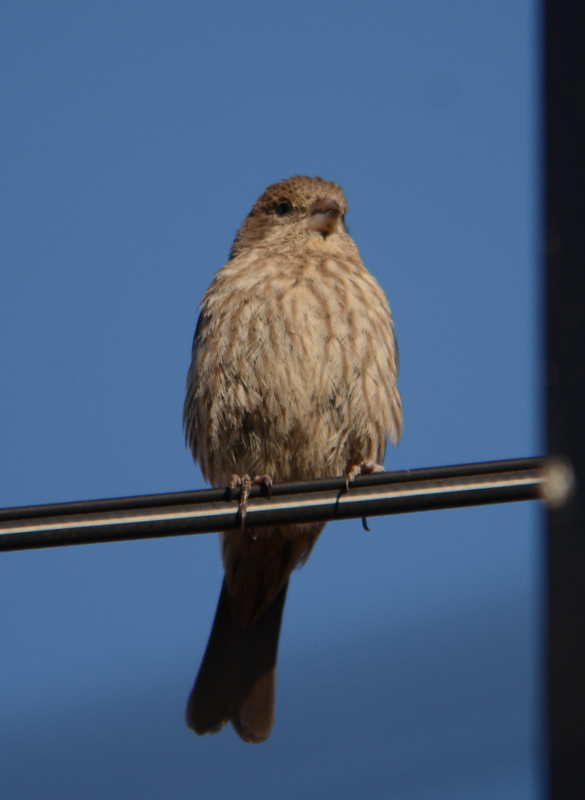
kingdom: Animalia
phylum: Chordata
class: Aves
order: Passeriformes
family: Fringillidae
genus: Haemorhous
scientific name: Haemorhous mexicanus
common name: House finch
